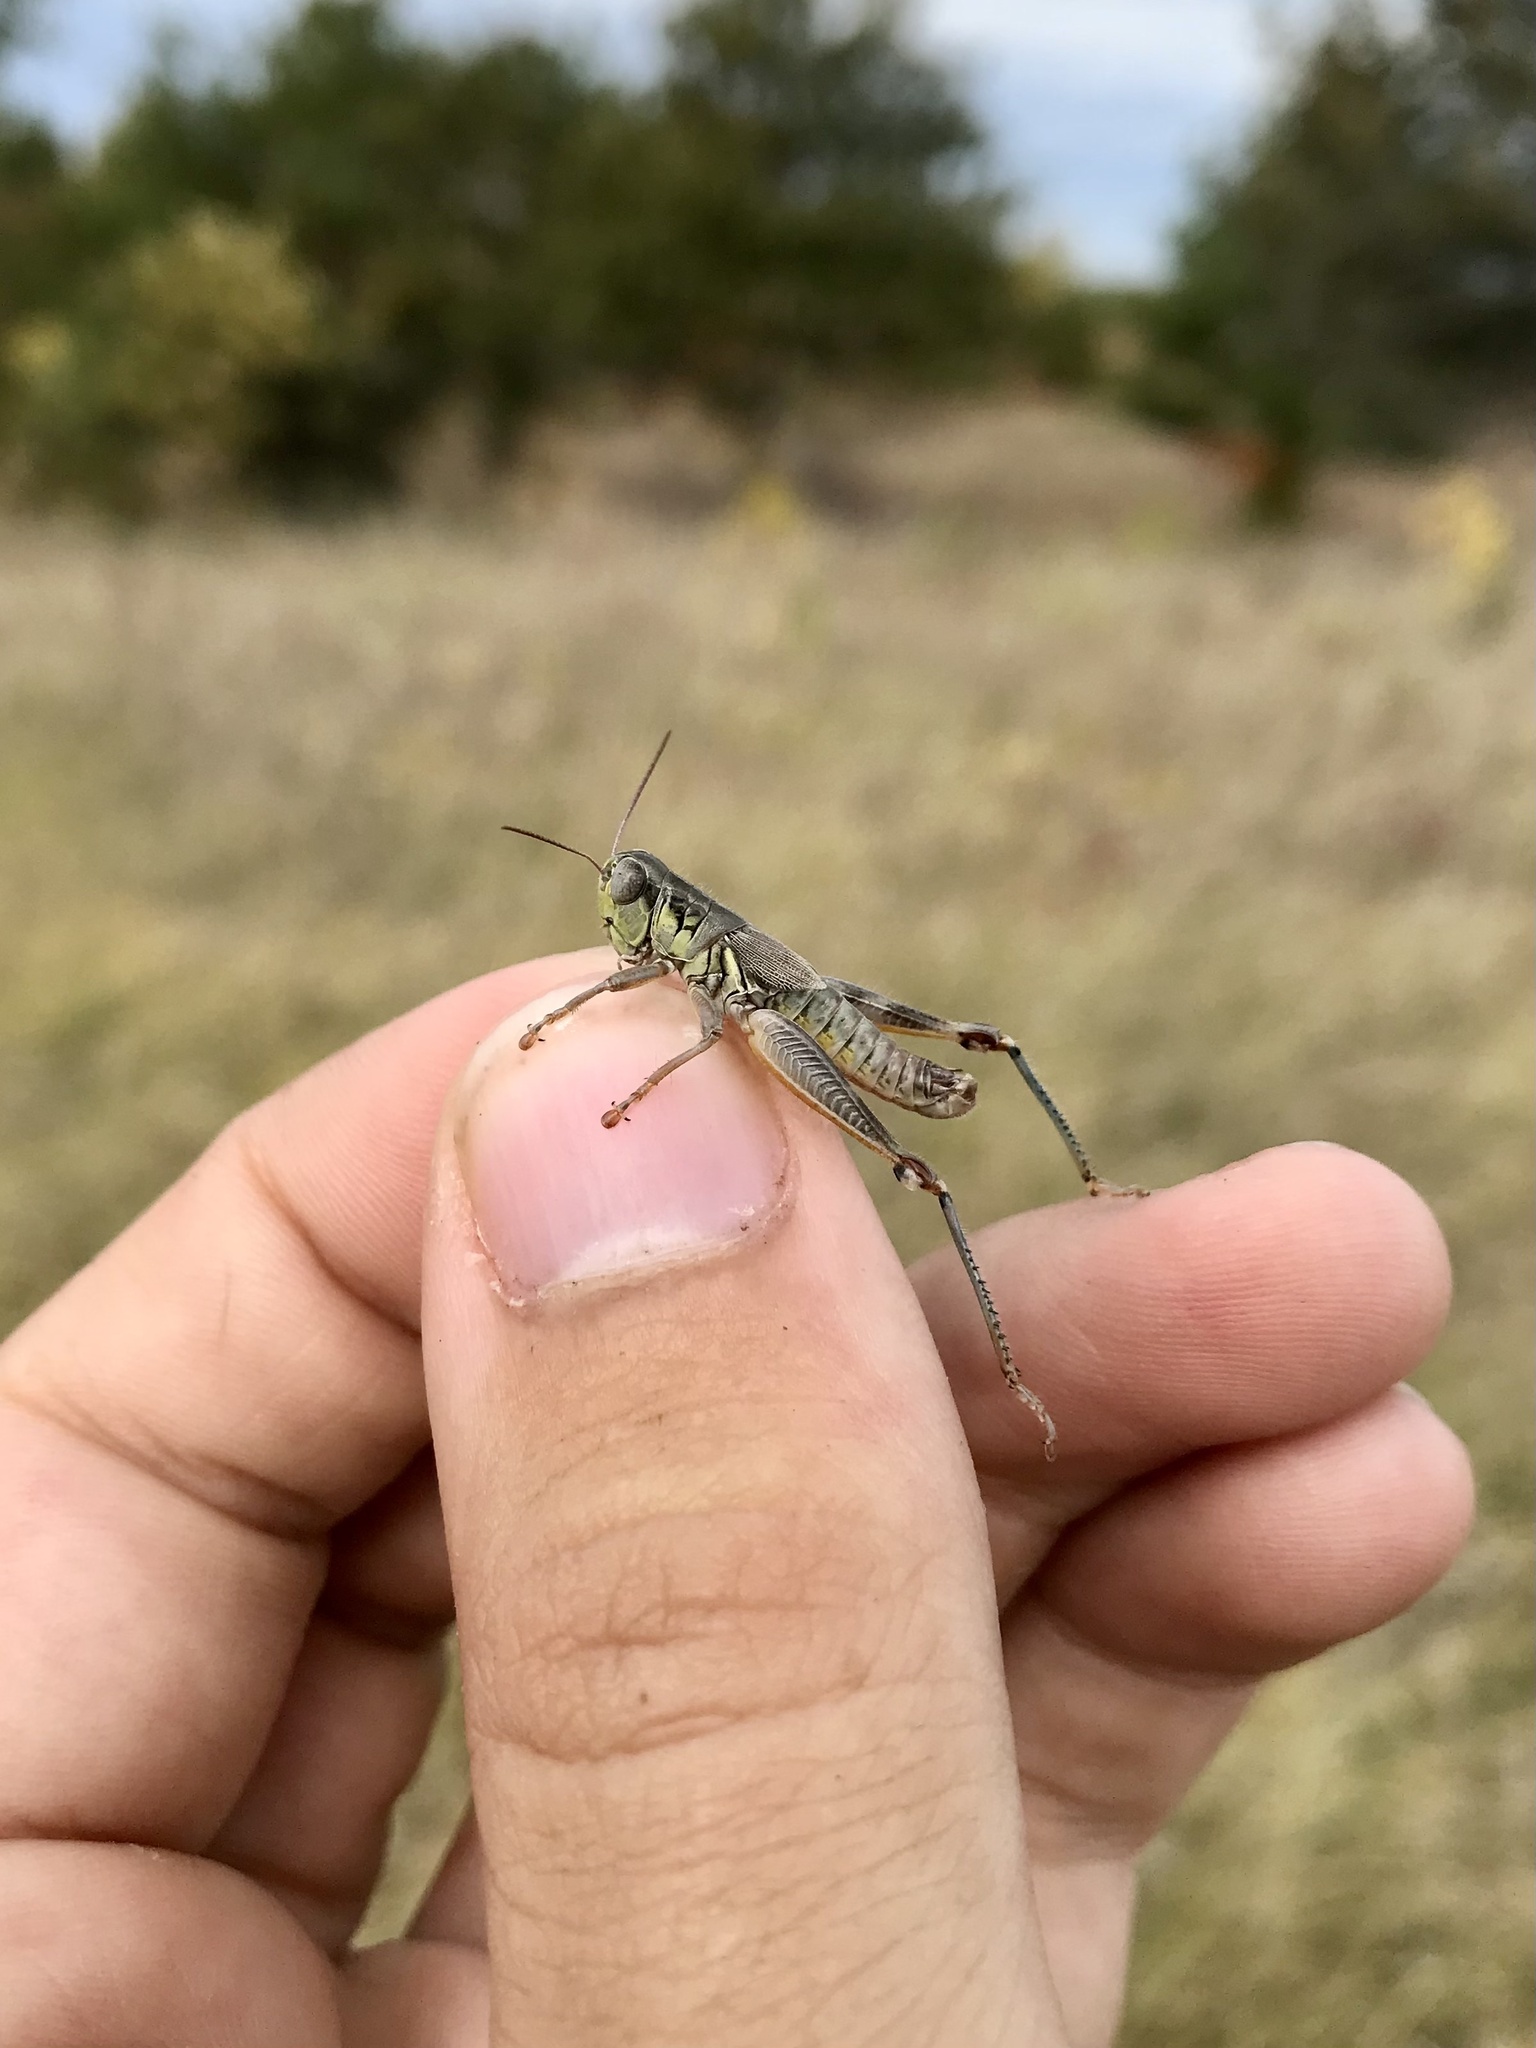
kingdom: Animalia
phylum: Arthropoda
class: Insecta
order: Orthoptera
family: Acrididae
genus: Phoetaliotes
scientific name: Phoetaliotes nebrascensis
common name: Large-headed grasshopper
